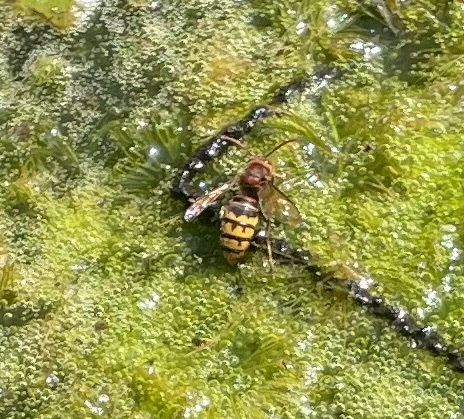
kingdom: Animalia
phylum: Arthropoda
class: Insecta
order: Hymenoptera
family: Vespidae
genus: Vespa
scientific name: Vespa crabro
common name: Hornet
